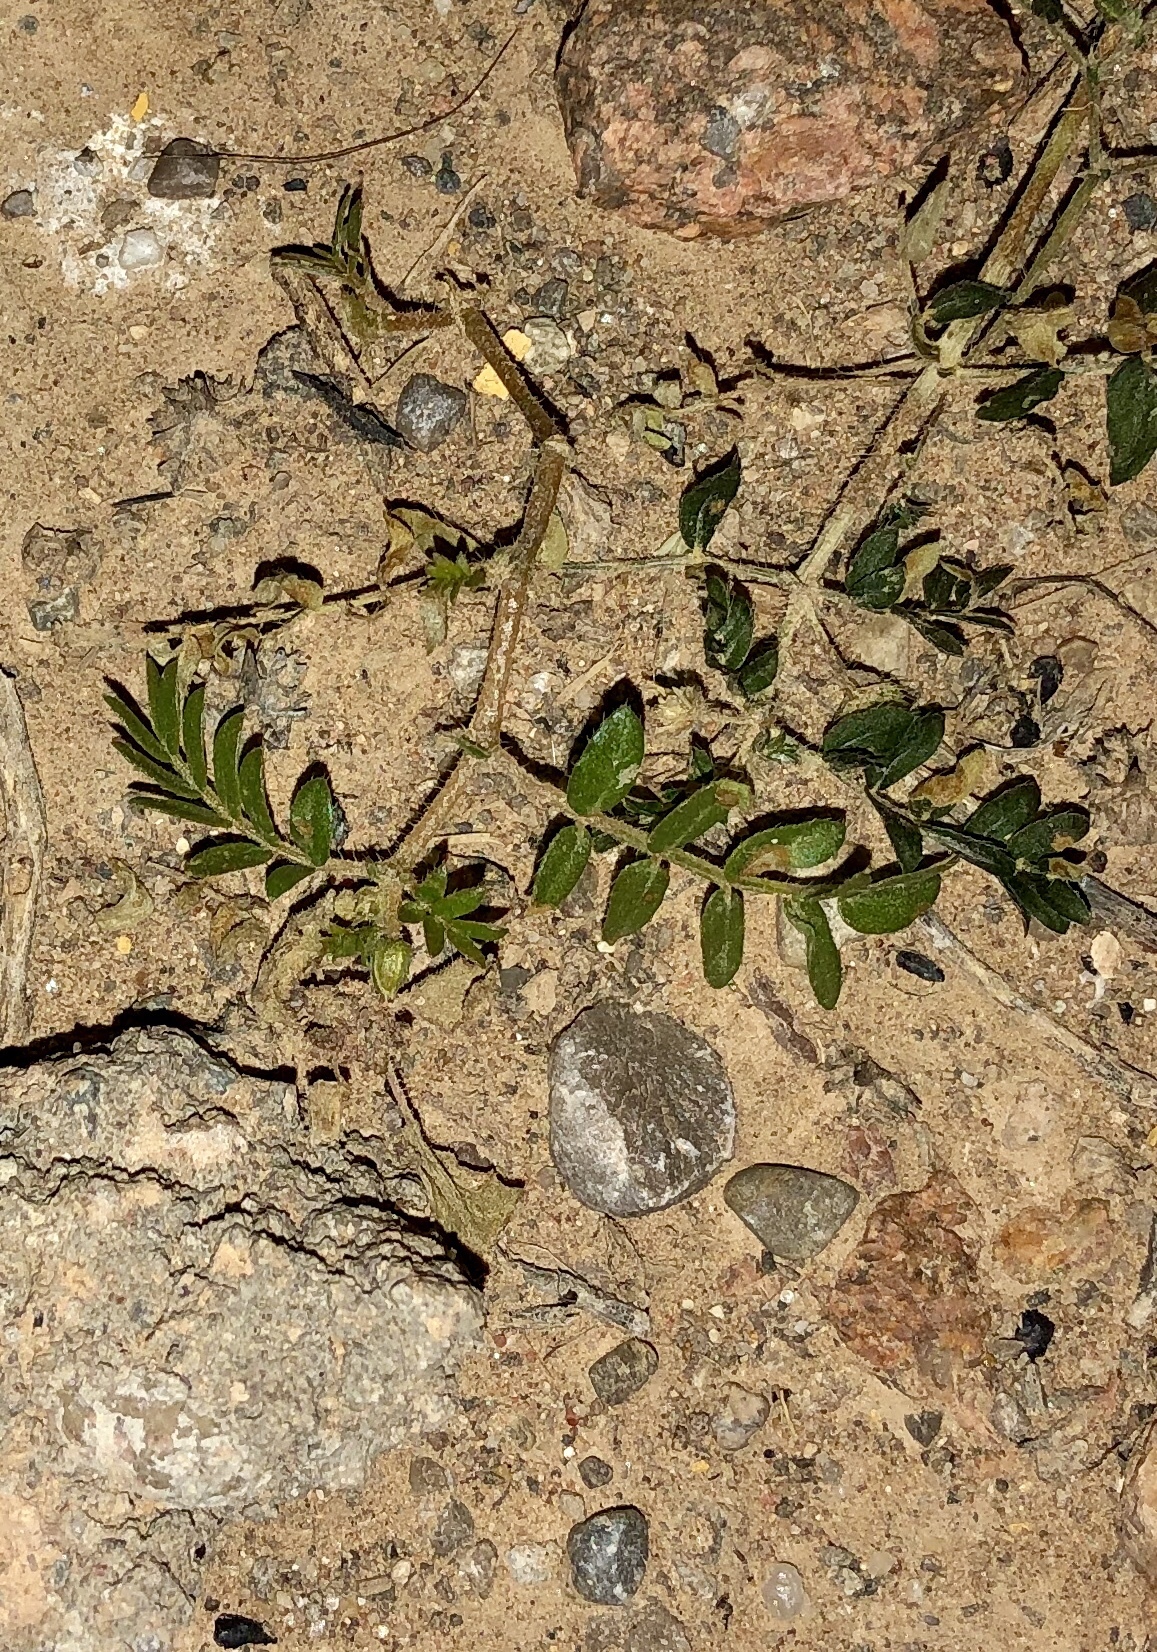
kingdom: Plantae
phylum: Tracheophyta
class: Magnoliopsida
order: Zygophyllales
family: Zygophyllaceae
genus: Tribulus
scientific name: Tribulus terrestris
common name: Puncturevine
